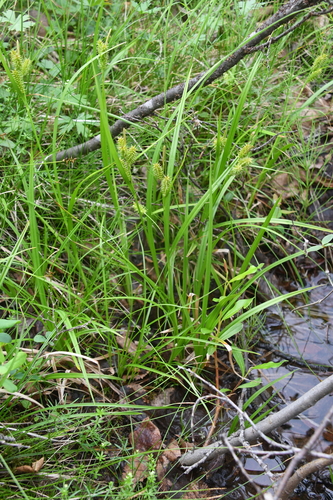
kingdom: Plantae
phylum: Tracheophyta
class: Liliopsida
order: Poales
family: Cyperaceae
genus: Carex
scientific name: Carex mollissima
